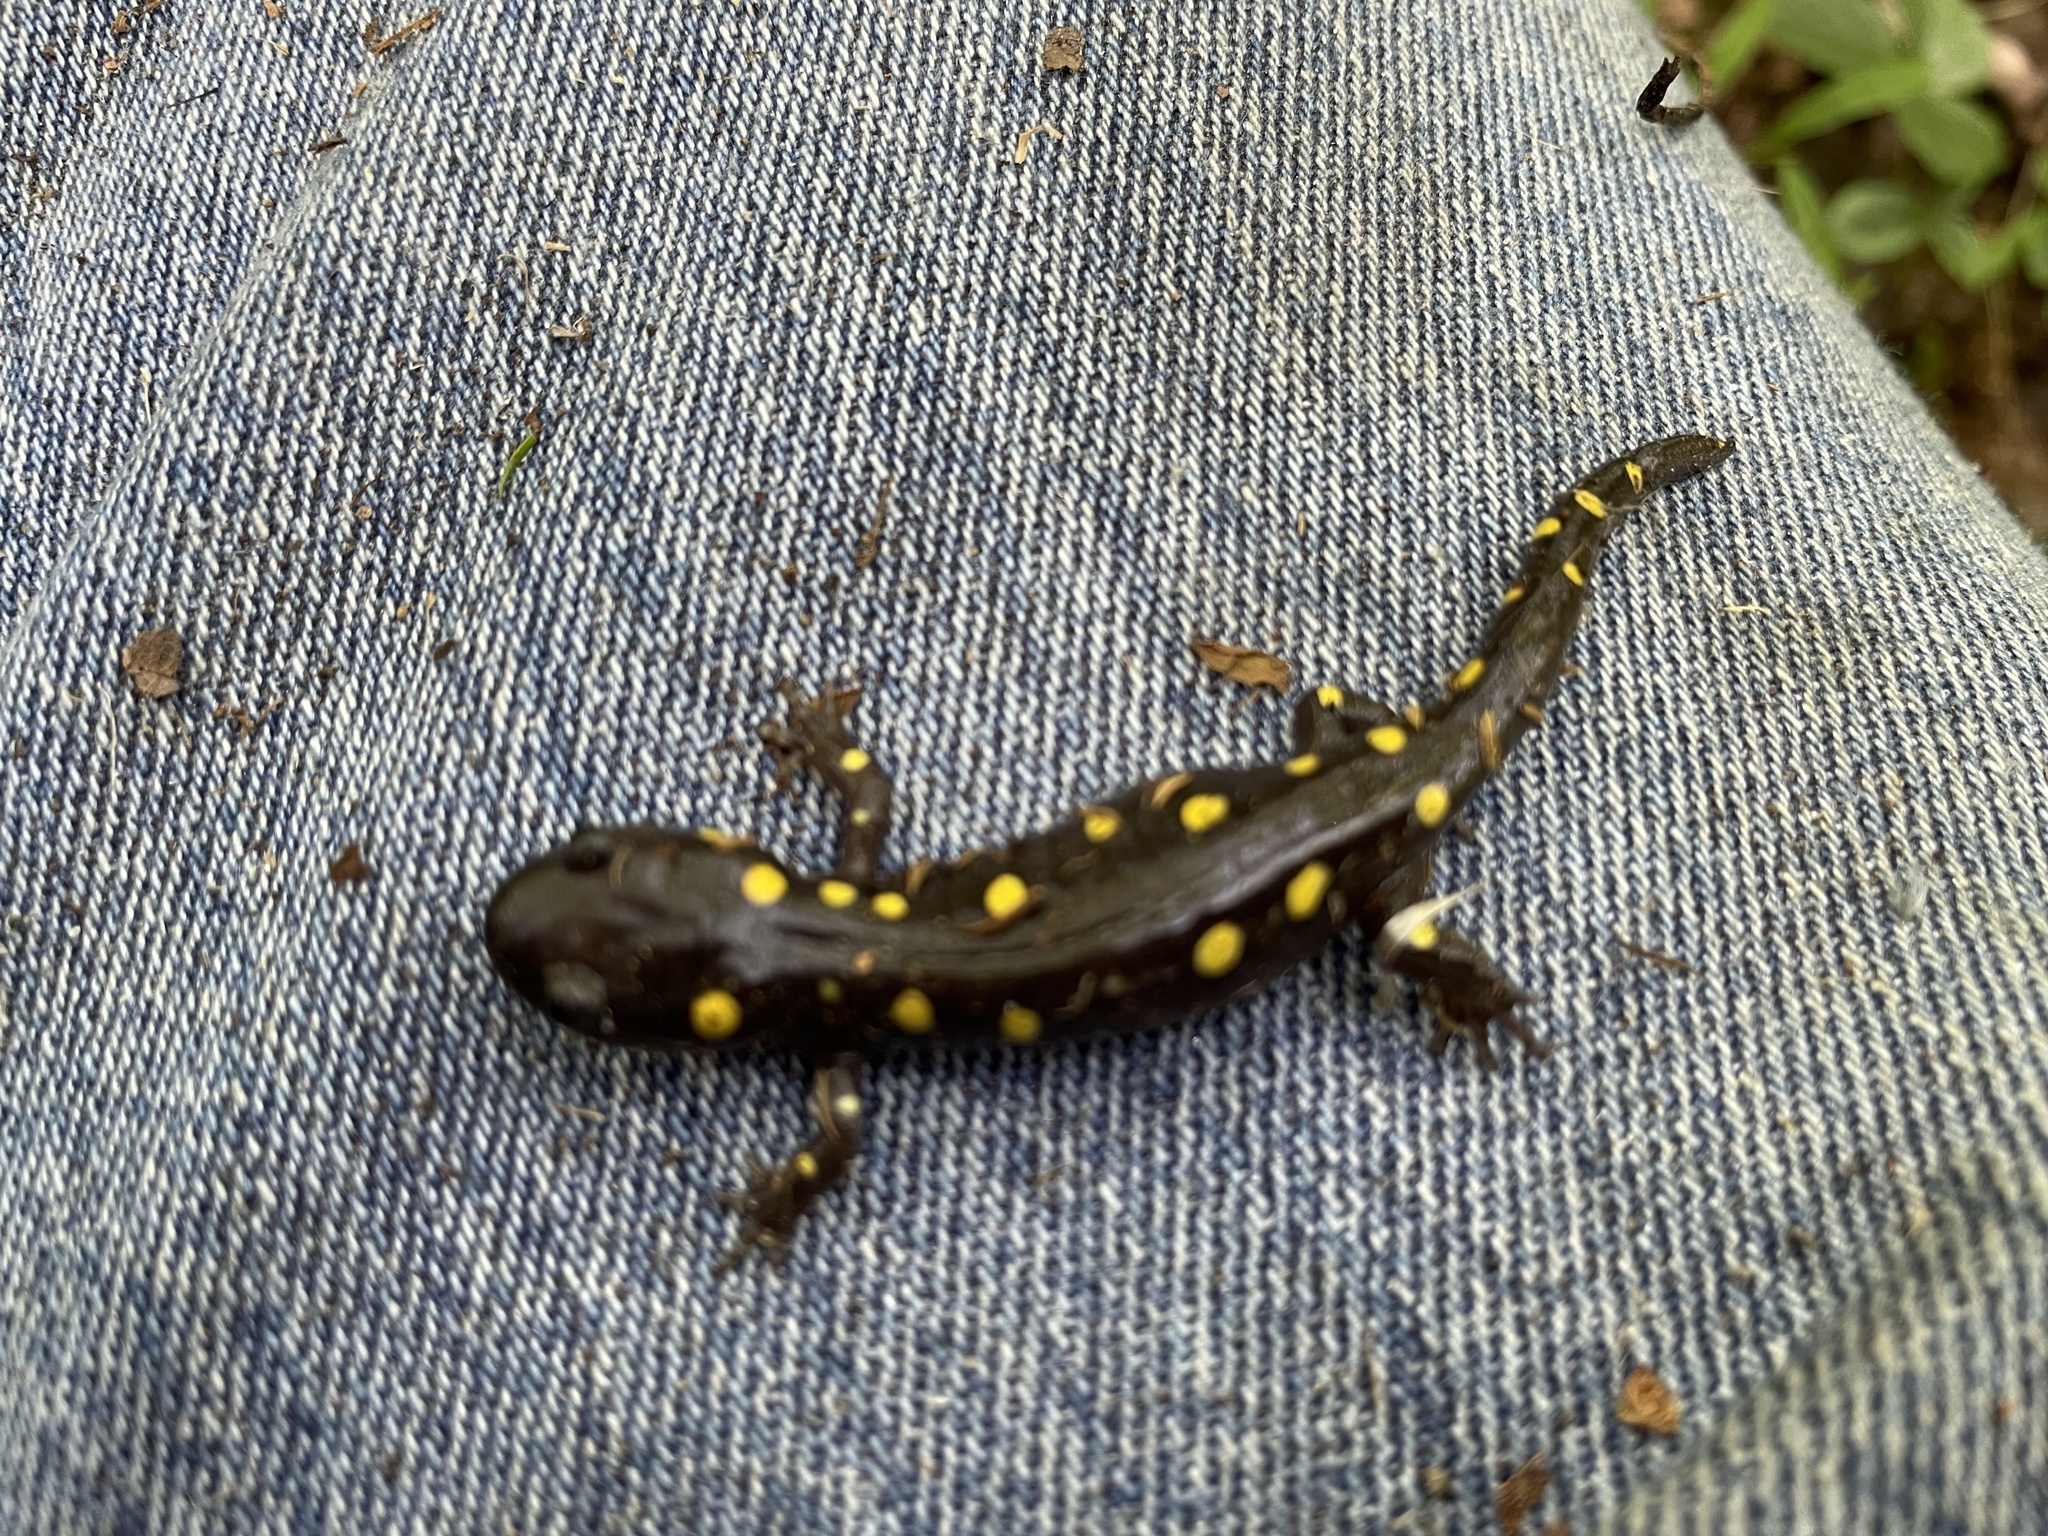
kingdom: Animalia
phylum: Chordata
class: Amphibia
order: Caudata
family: Ambystomatidae
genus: Ambystoma
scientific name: Ambystoma maculatum
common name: Spotted salamander
